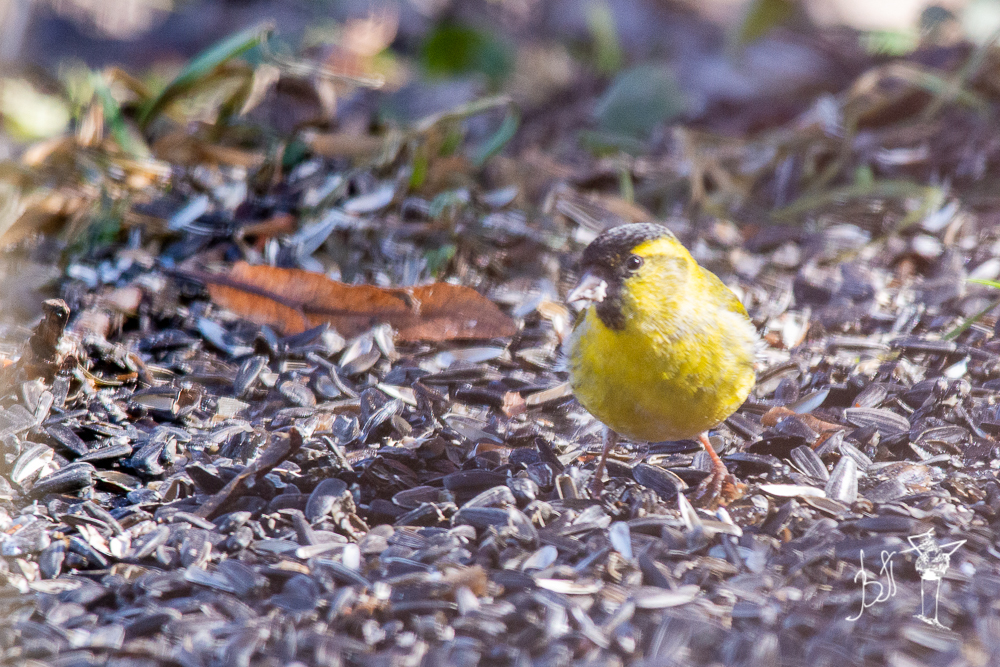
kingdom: Animalia
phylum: Chordata
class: Aves
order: Passeriformes
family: Fringillidae
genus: Spinus
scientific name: Spinus spinus
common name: Eurasian siskin
